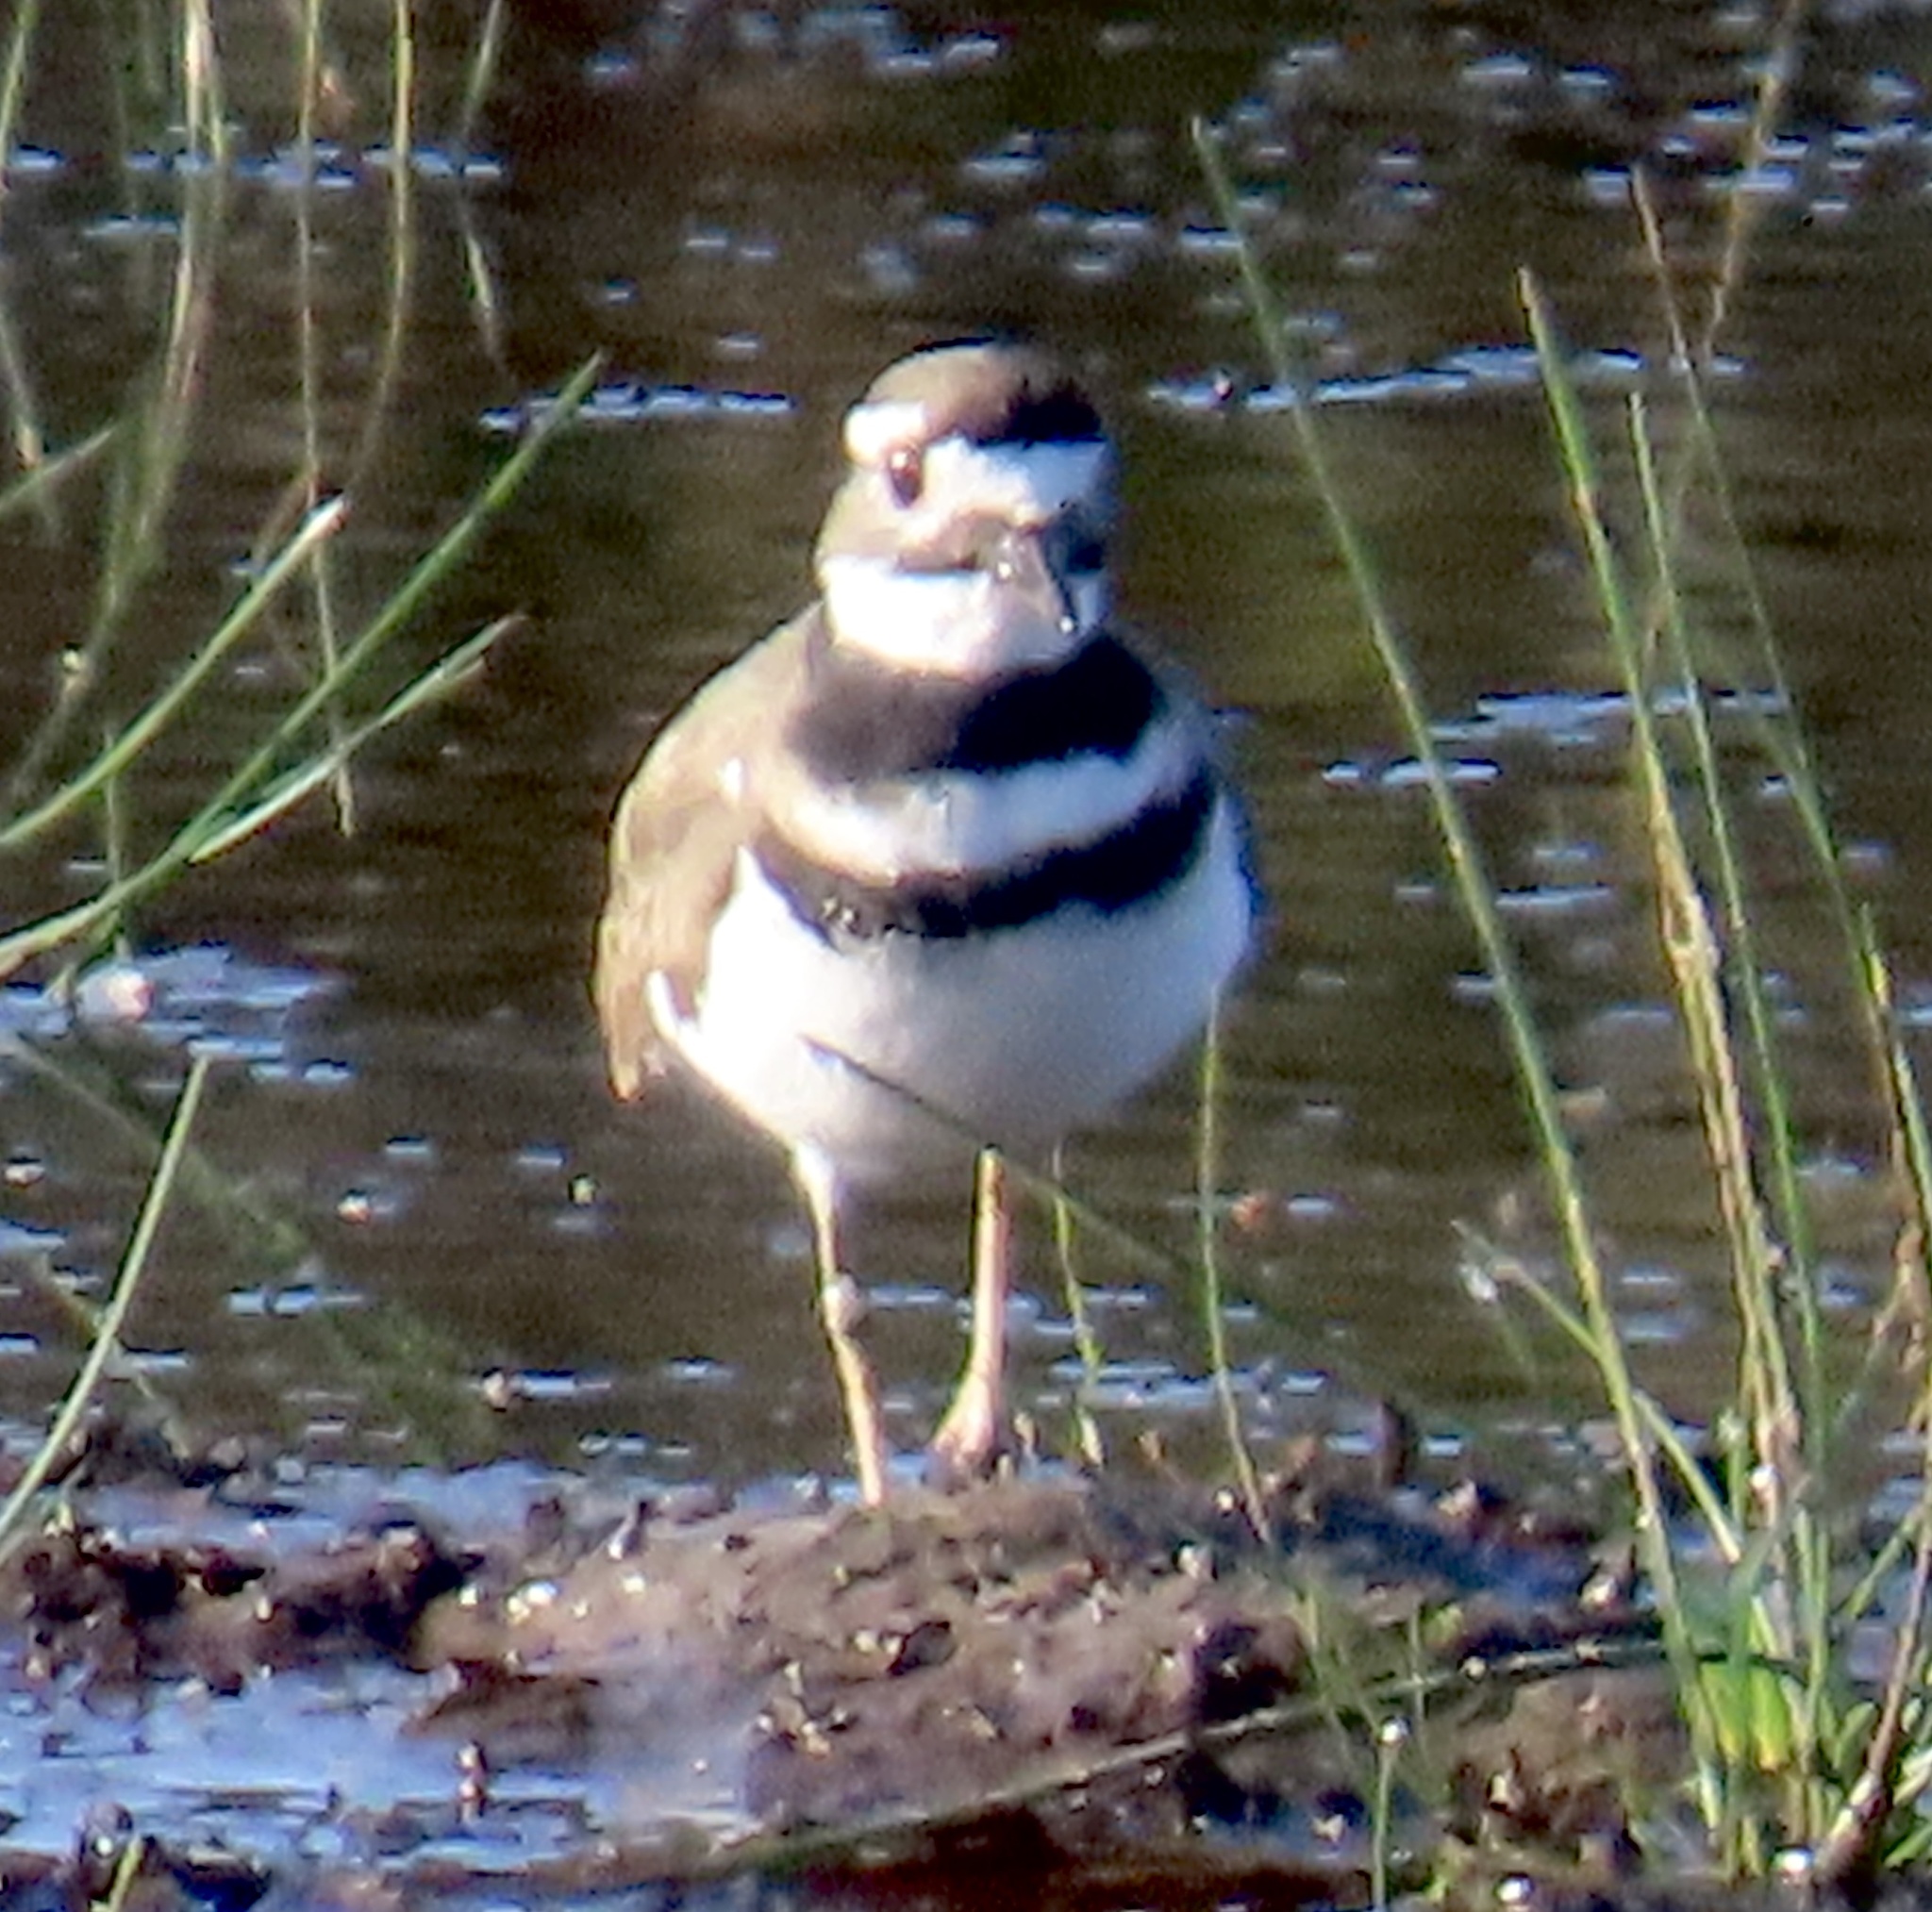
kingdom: Animalia
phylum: Chordata
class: Aves
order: Charadriiformes
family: Charadriidae
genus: Charadrius
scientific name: Charadrius vociferus
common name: Killdeer
